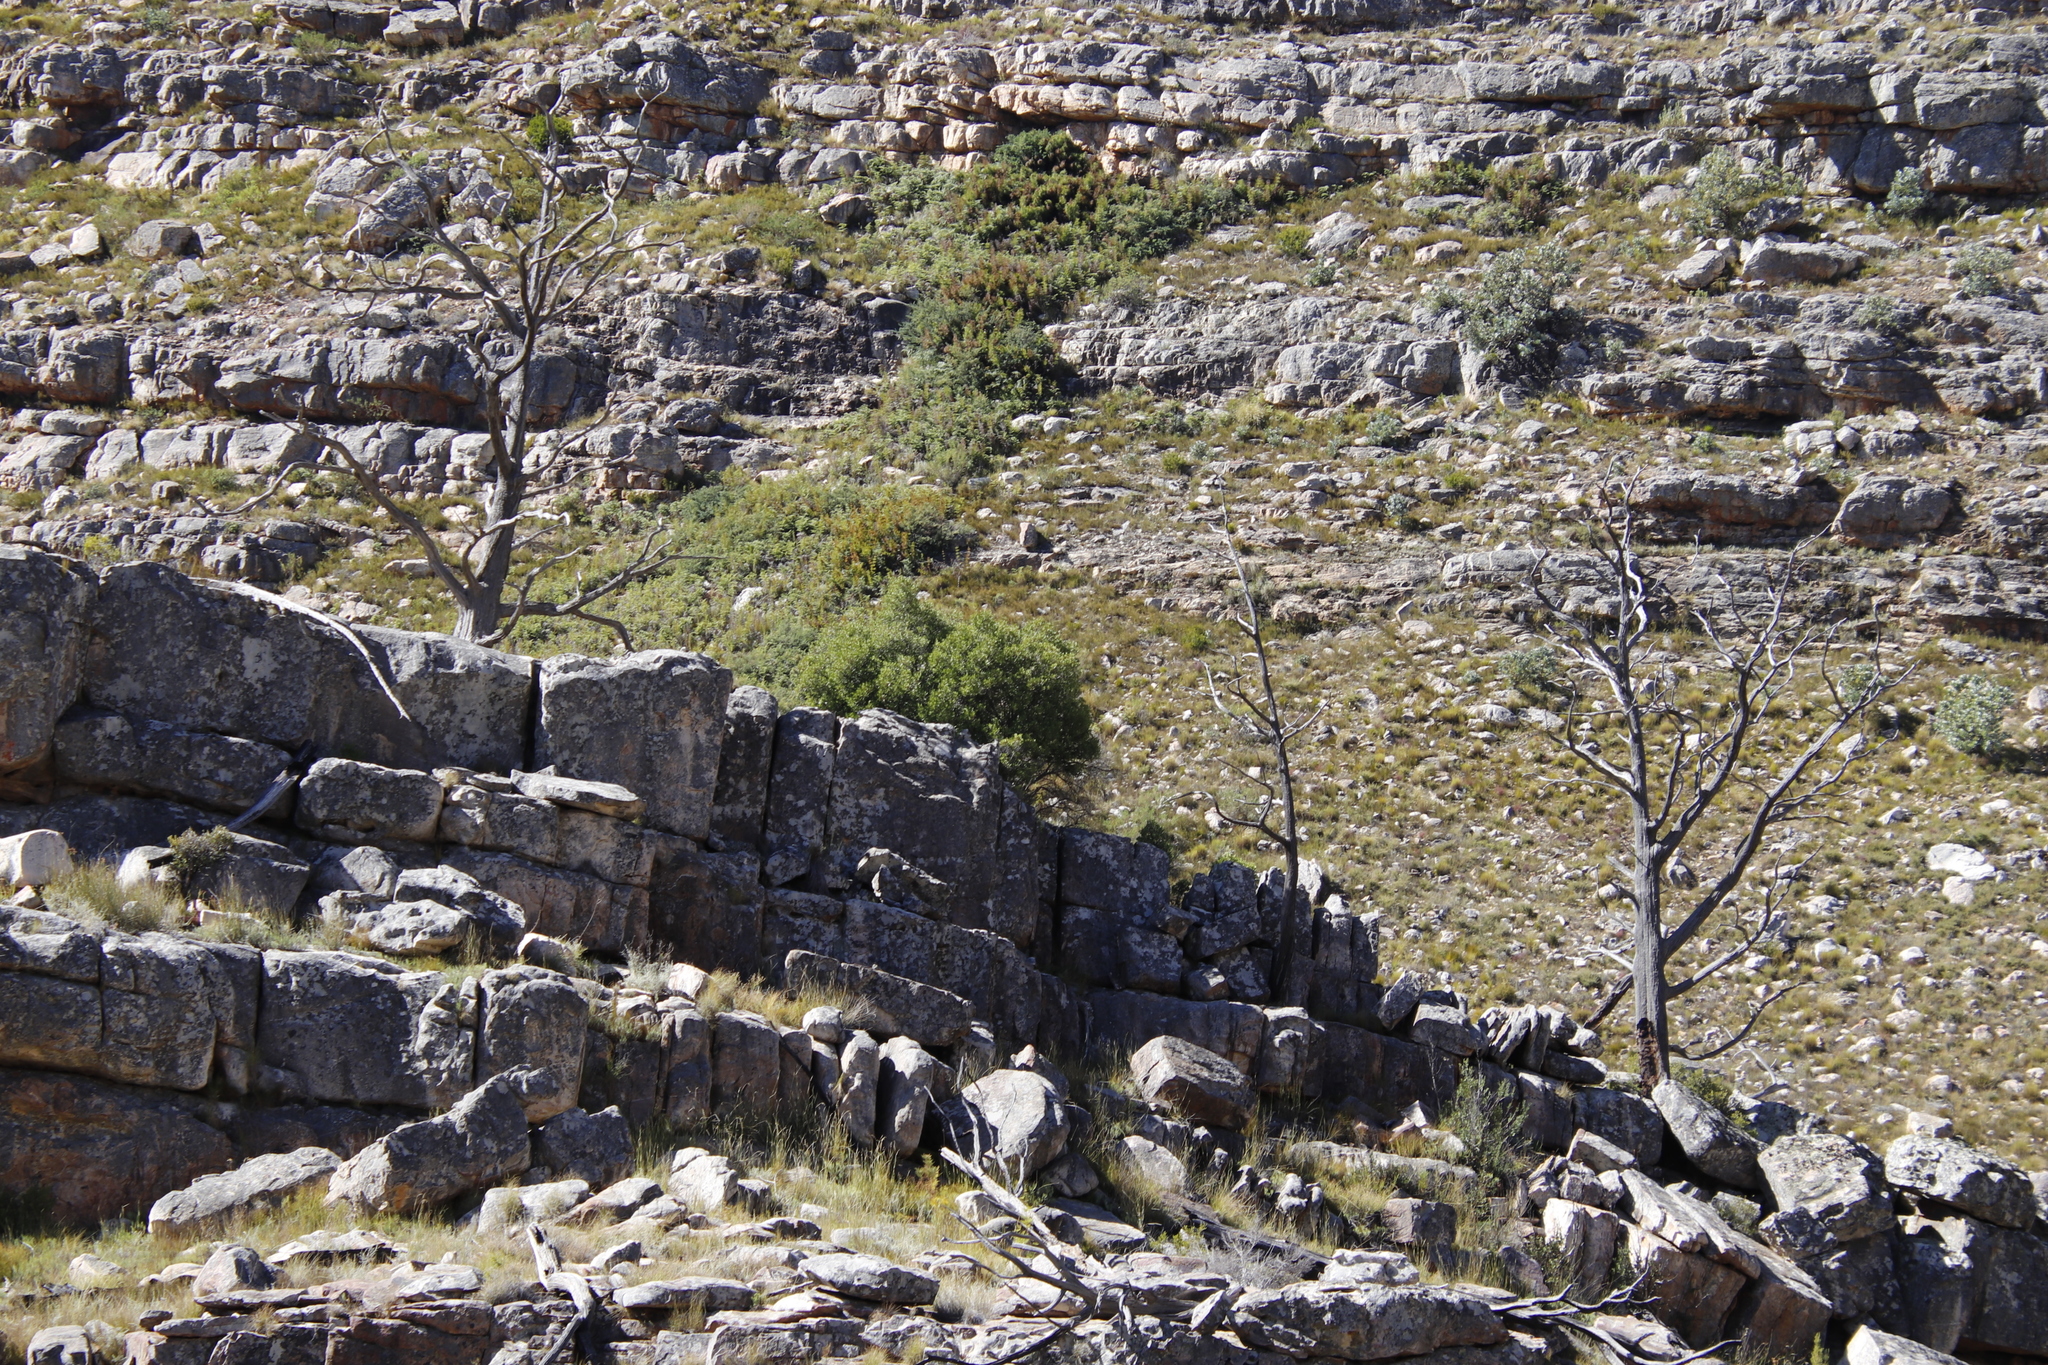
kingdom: Plantae
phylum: Tracheophyta
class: Pinopsida
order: Pinales
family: Cupressaceae
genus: Widdringtonia
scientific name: Widdringtonia nodiflora
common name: Cape cypress
